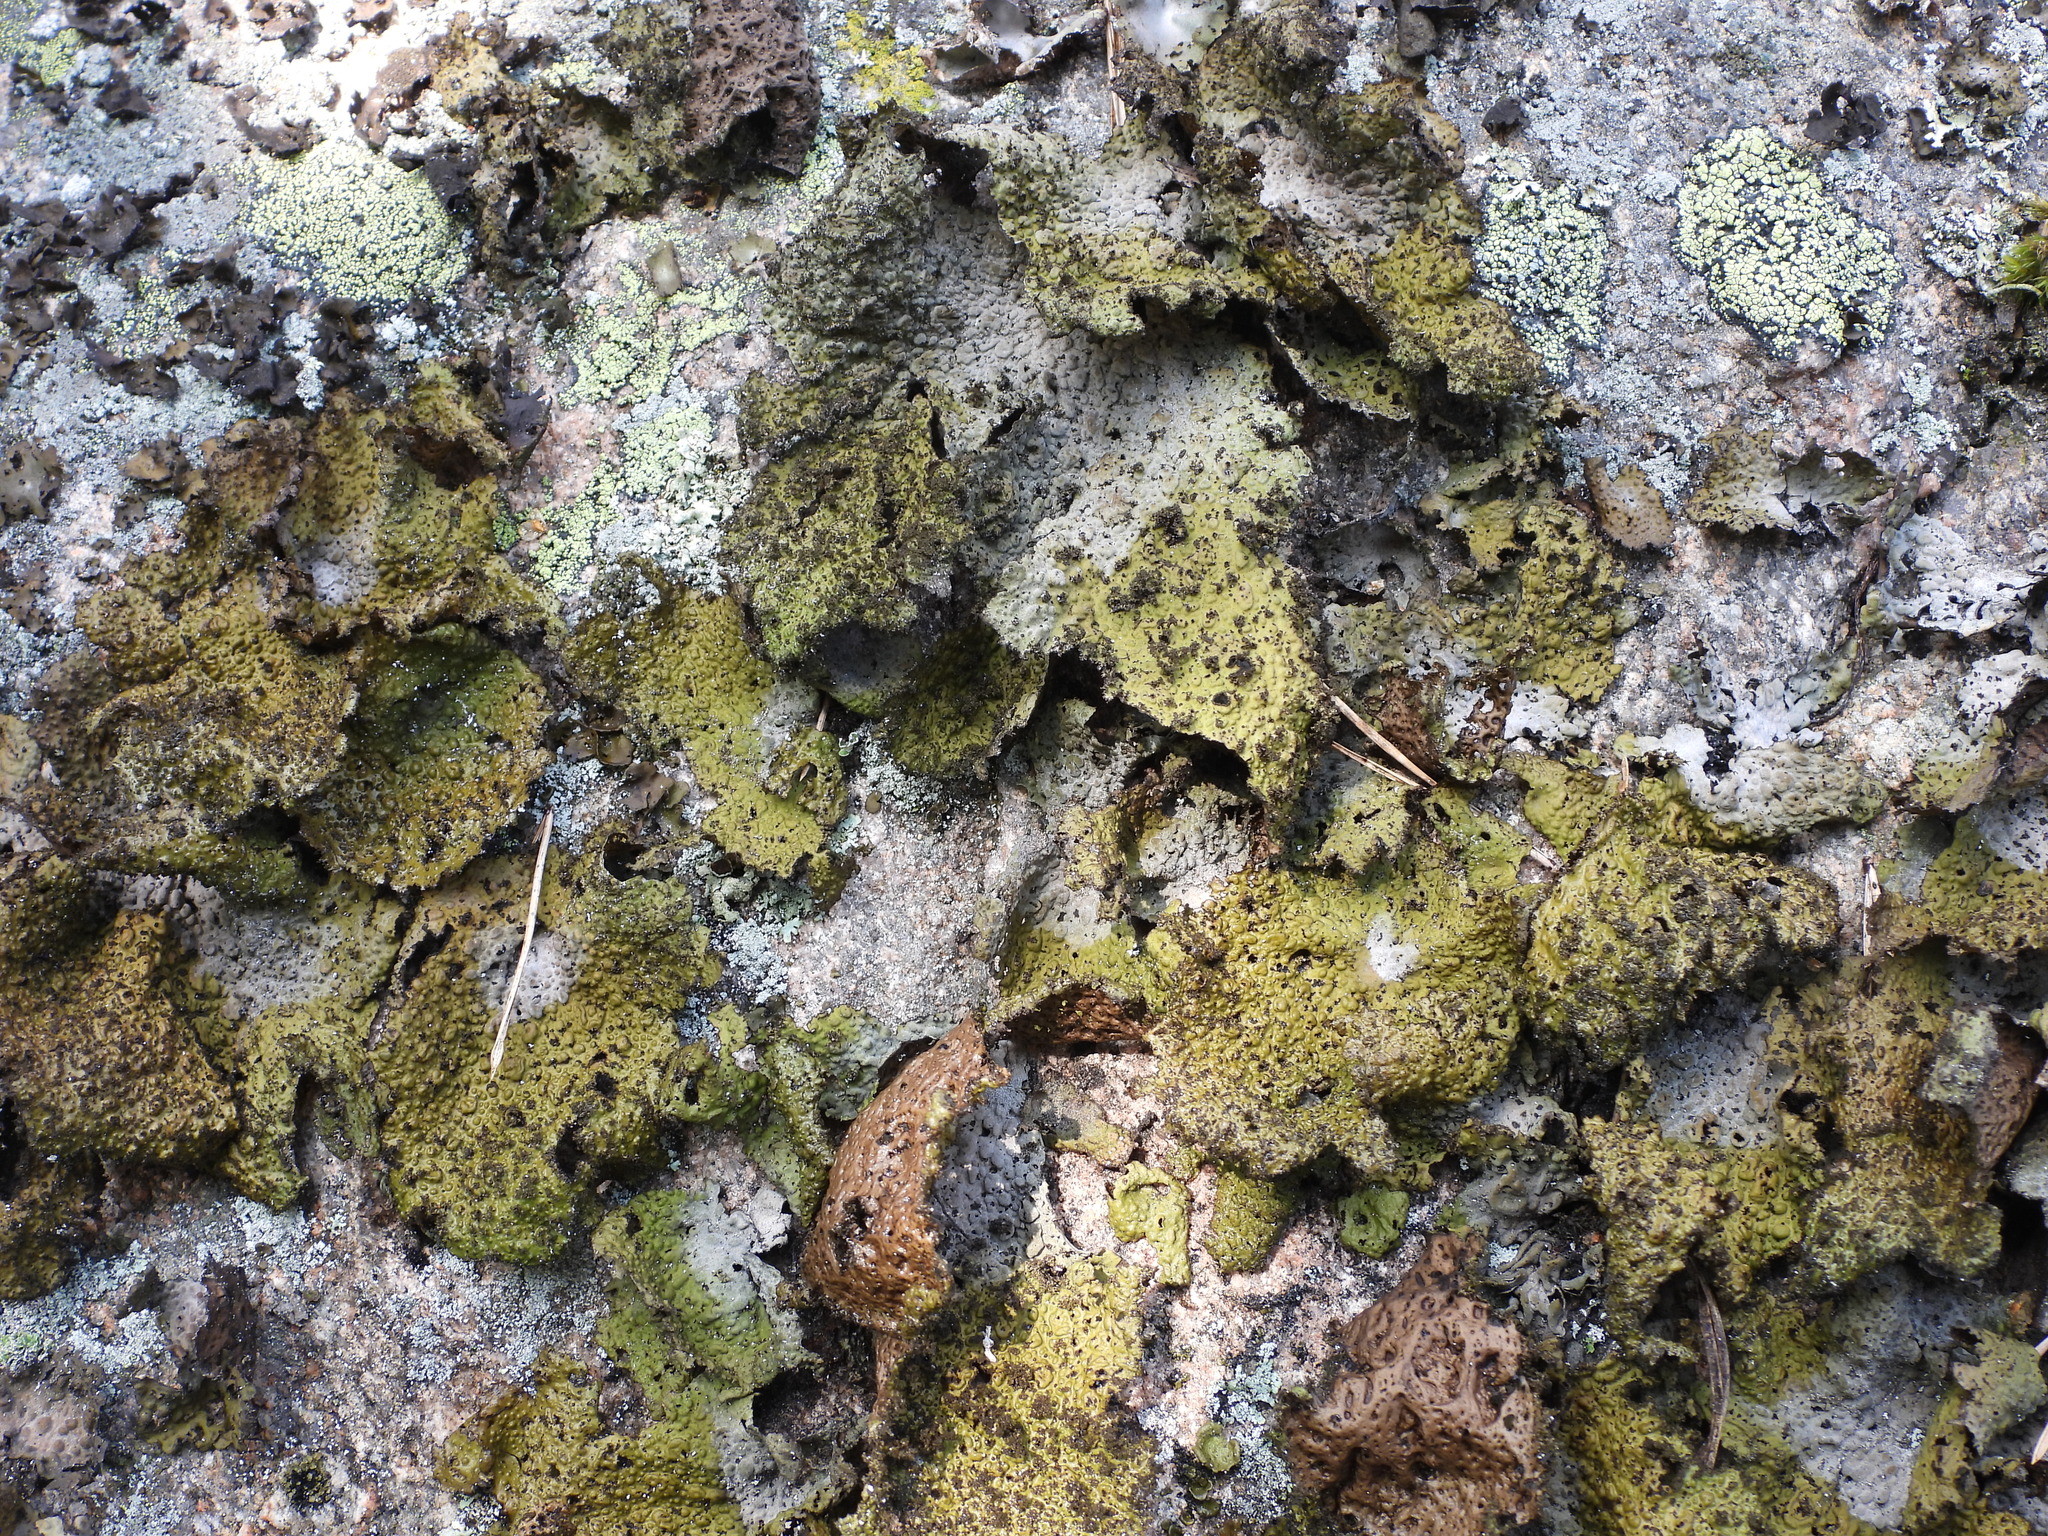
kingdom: Fungi
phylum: Ascomycota
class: Lecanoromycetes
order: Umbilicariales
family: Umbilicariaceae
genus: Lasallia
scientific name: Lasallia pustulata
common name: Blistered toadskin lichen
